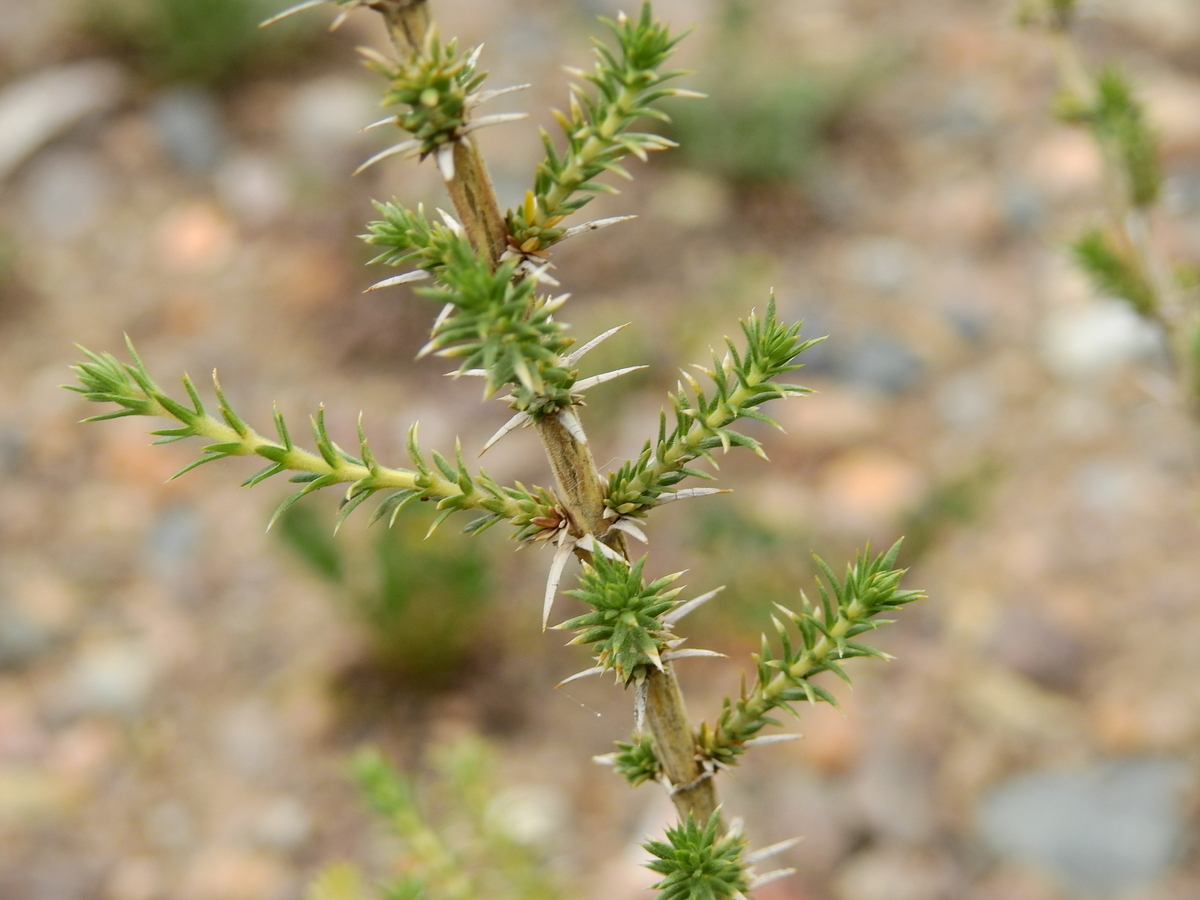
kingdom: Plantae
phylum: Tracheophyta
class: Magnoliopsida
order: Lamiales
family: Verbenaceae
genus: Junellia
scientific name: Junellia juniperina
